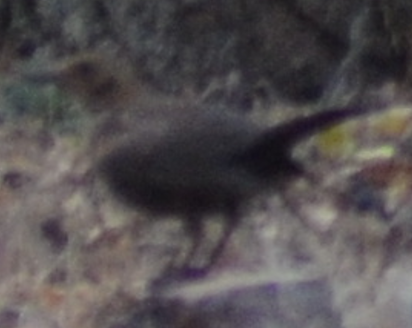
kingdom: Animalia
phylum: Chordata
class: Aves
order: Passeriformes
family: Turdidae
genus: Turdus
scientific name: Turdus merula
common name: Common blackbird
